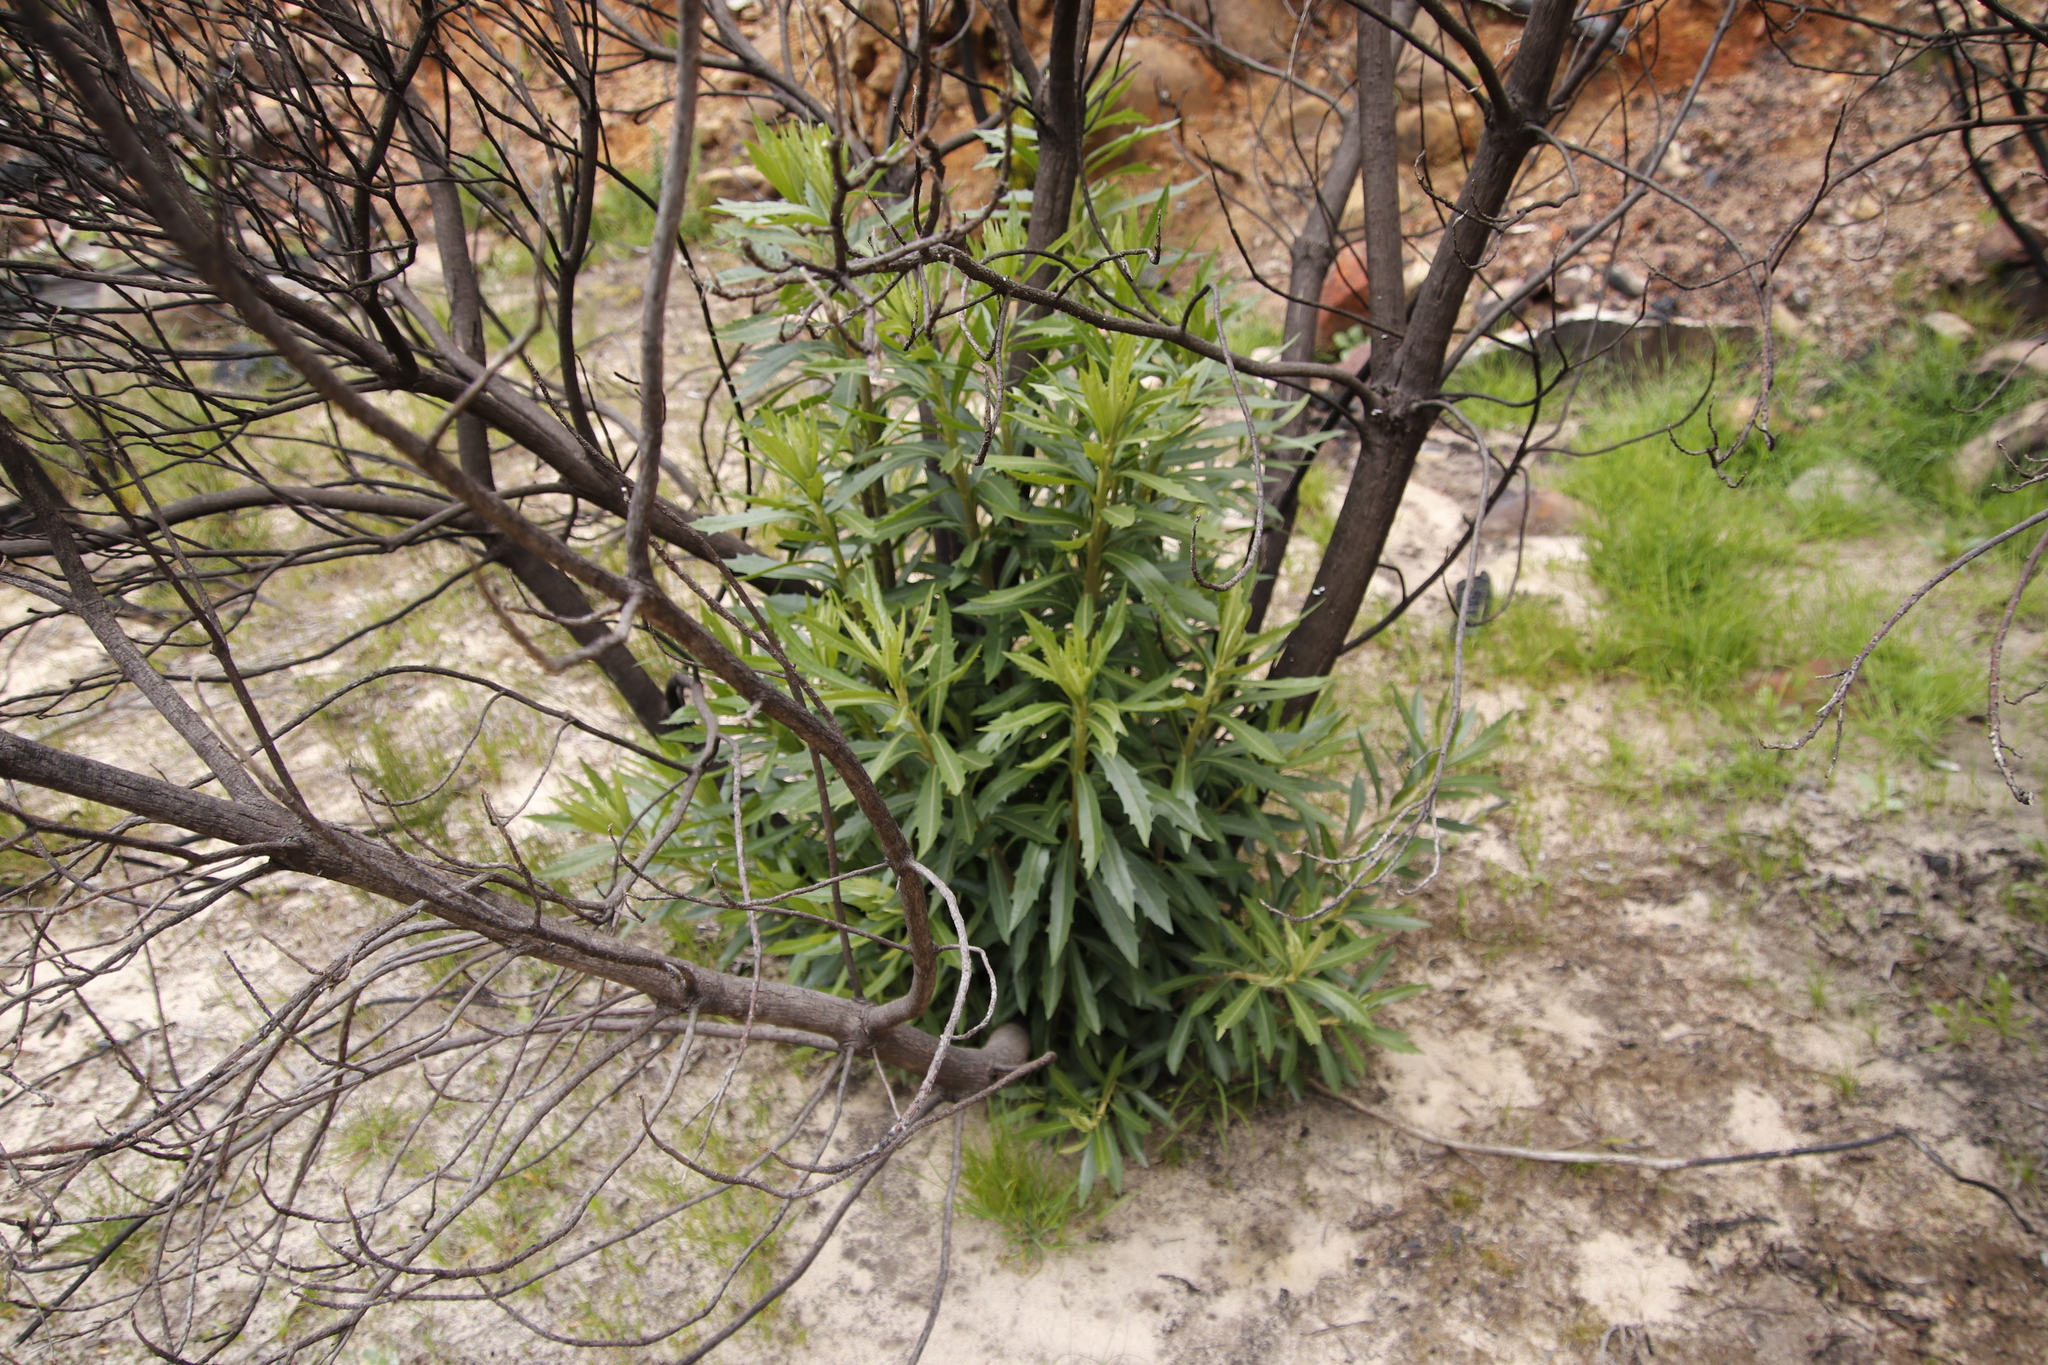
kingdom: Plantae
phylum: Tracheophyta
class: Magnoliopsida
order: Asterales
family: Asteraceae
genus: Brachylaena
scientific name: Brachylaena neriifolia
